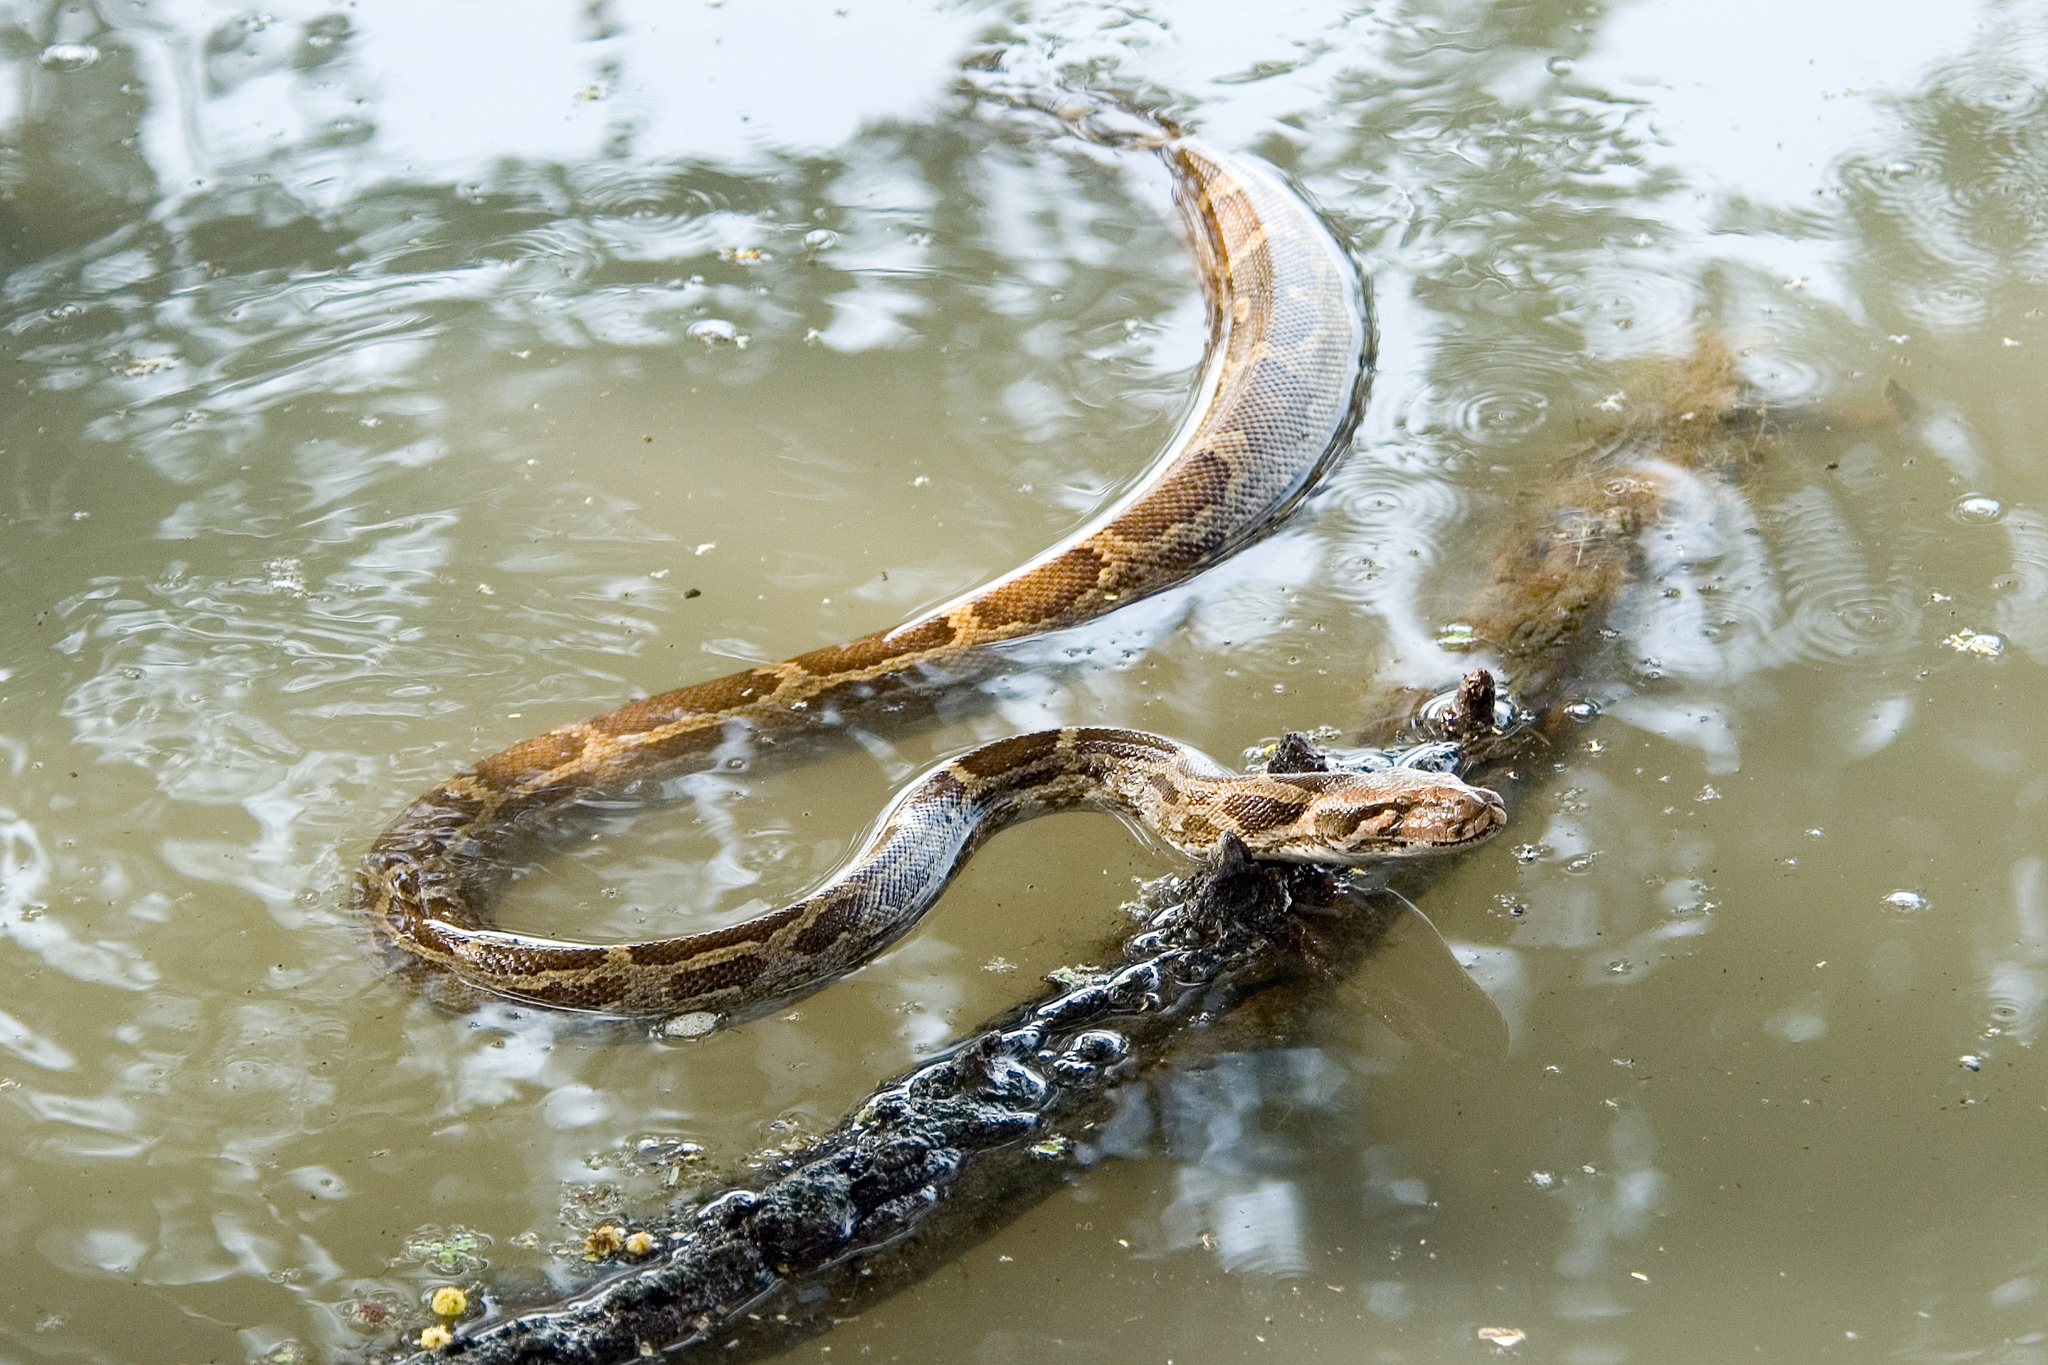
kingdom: Animalia
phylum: Chordata
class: Squamata
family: Pythonidae
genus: Python
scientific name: Python molurus
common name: Indian rock python
